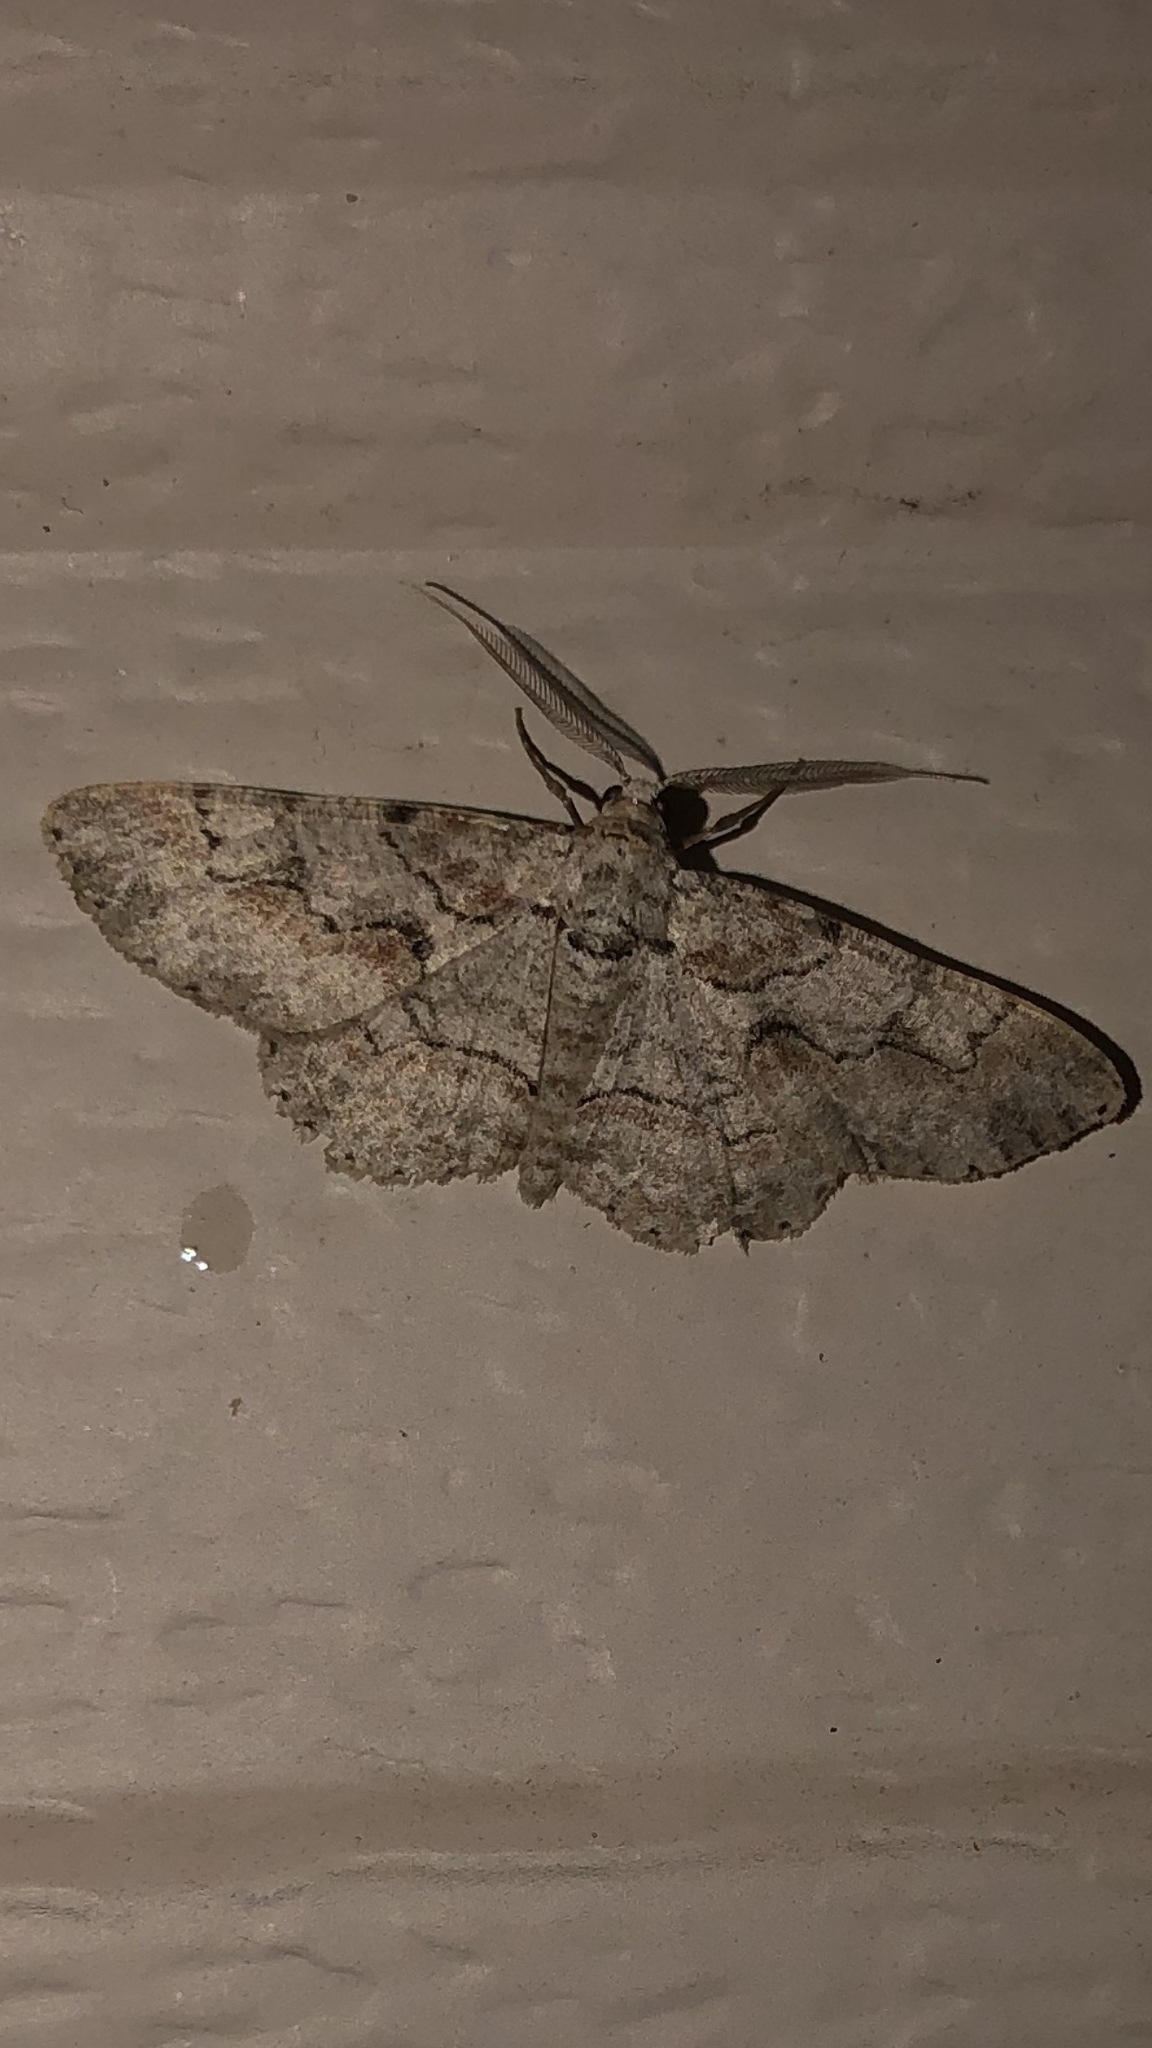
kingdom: Animalia
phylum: Arthropoda
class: Insecta
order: Lepidoptera
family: Geometridae
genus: Iridopsis
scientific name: Iridopsis defectaria
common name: Brown-shaded gray
